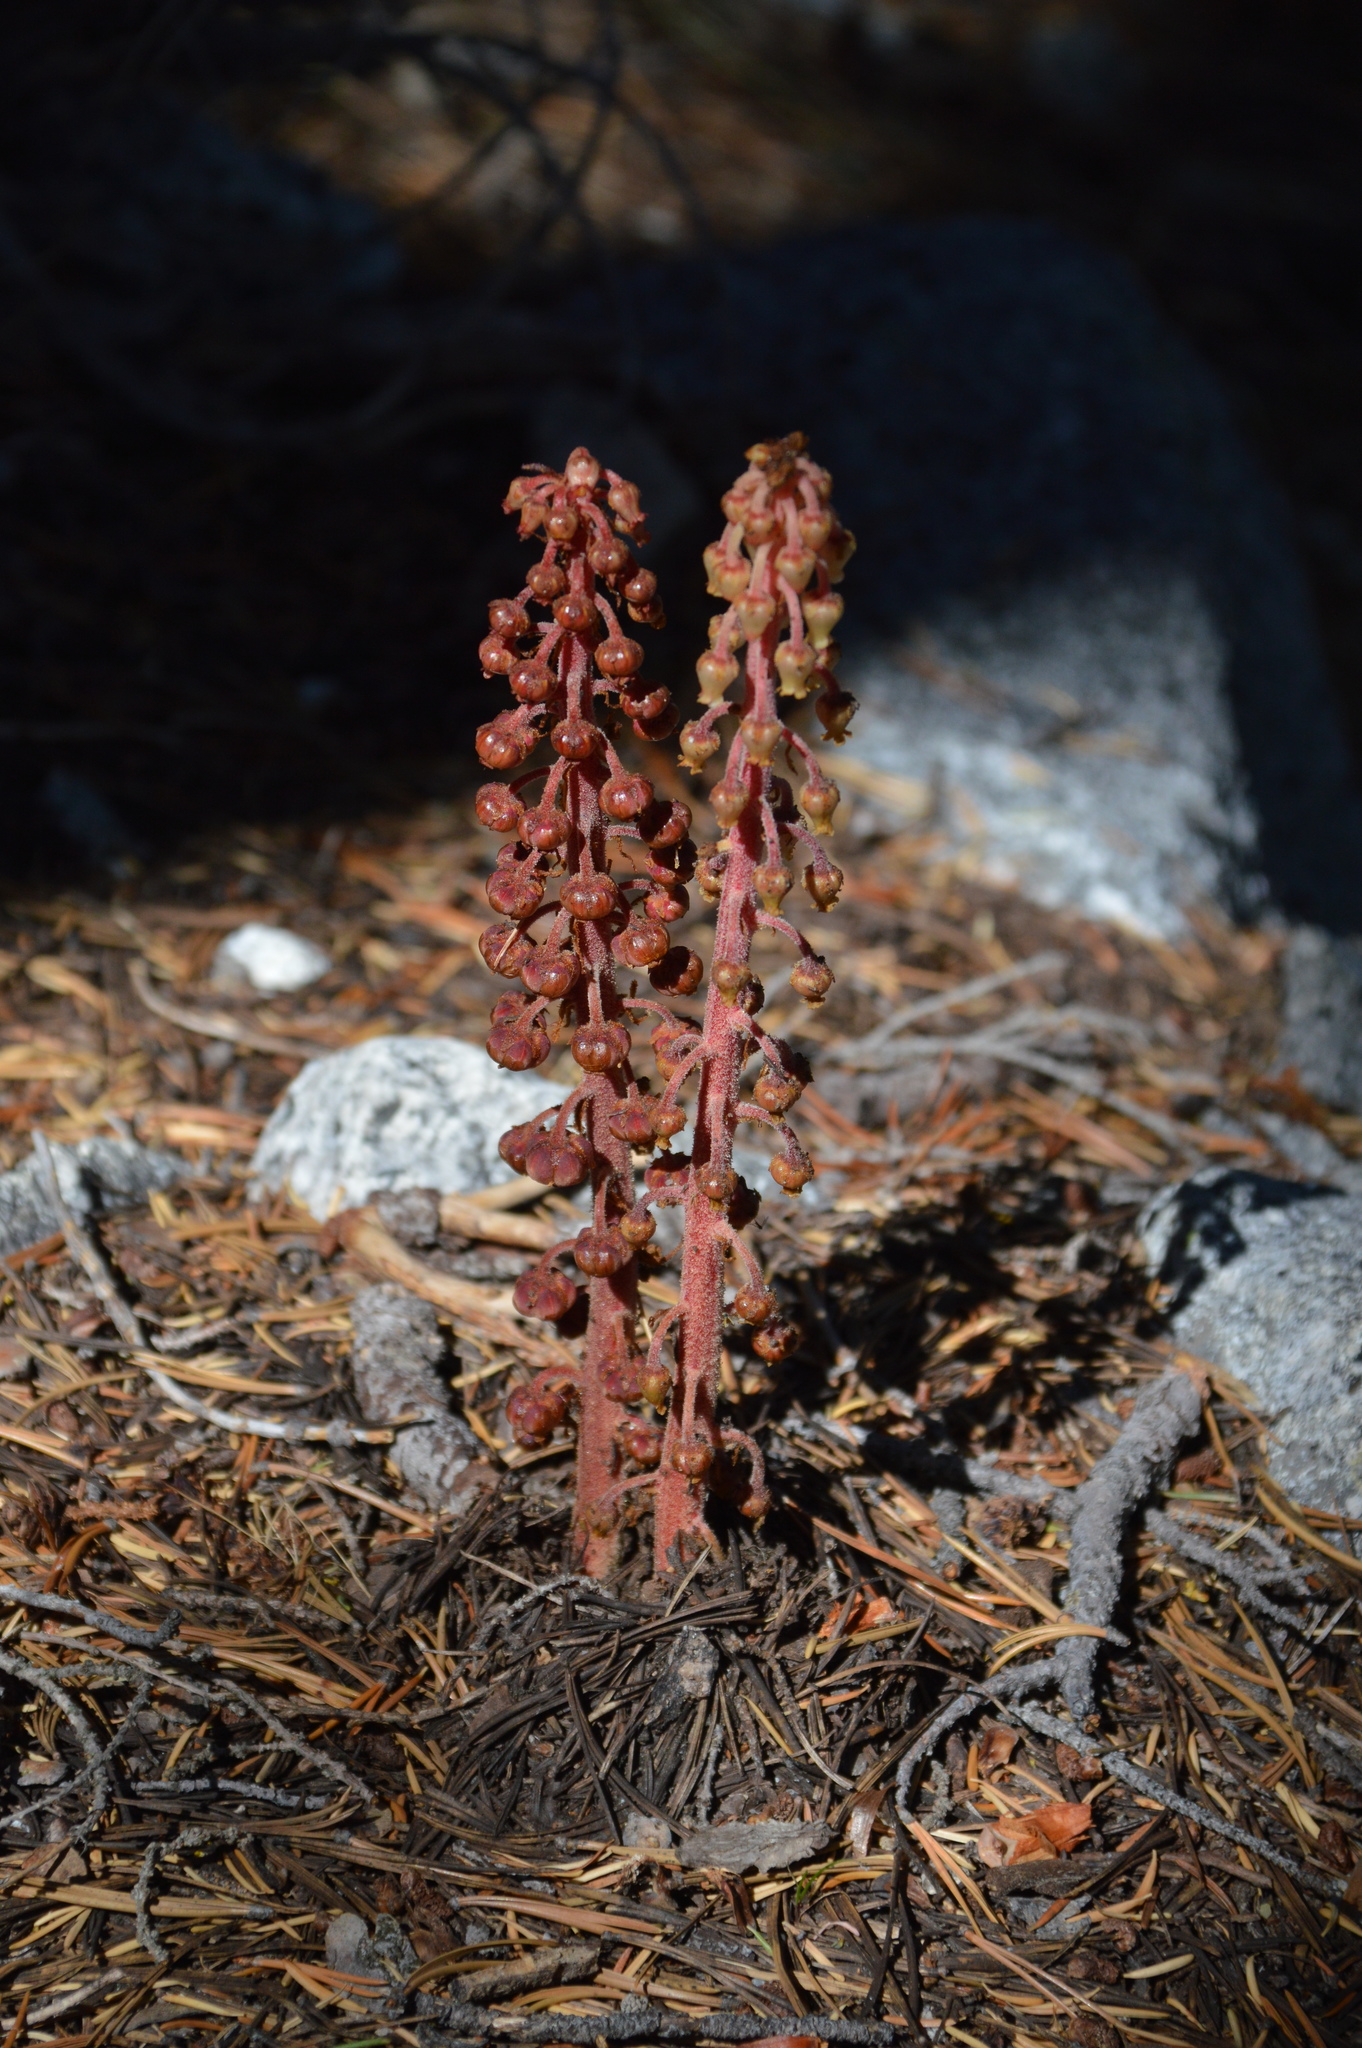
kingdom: Plantae
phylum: Tracheophyta
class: Magnoliopsida
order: Ericales
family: Ericaceae
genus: Pterospora
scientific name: Pterospora andromedea
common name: Giant bird's-nest
